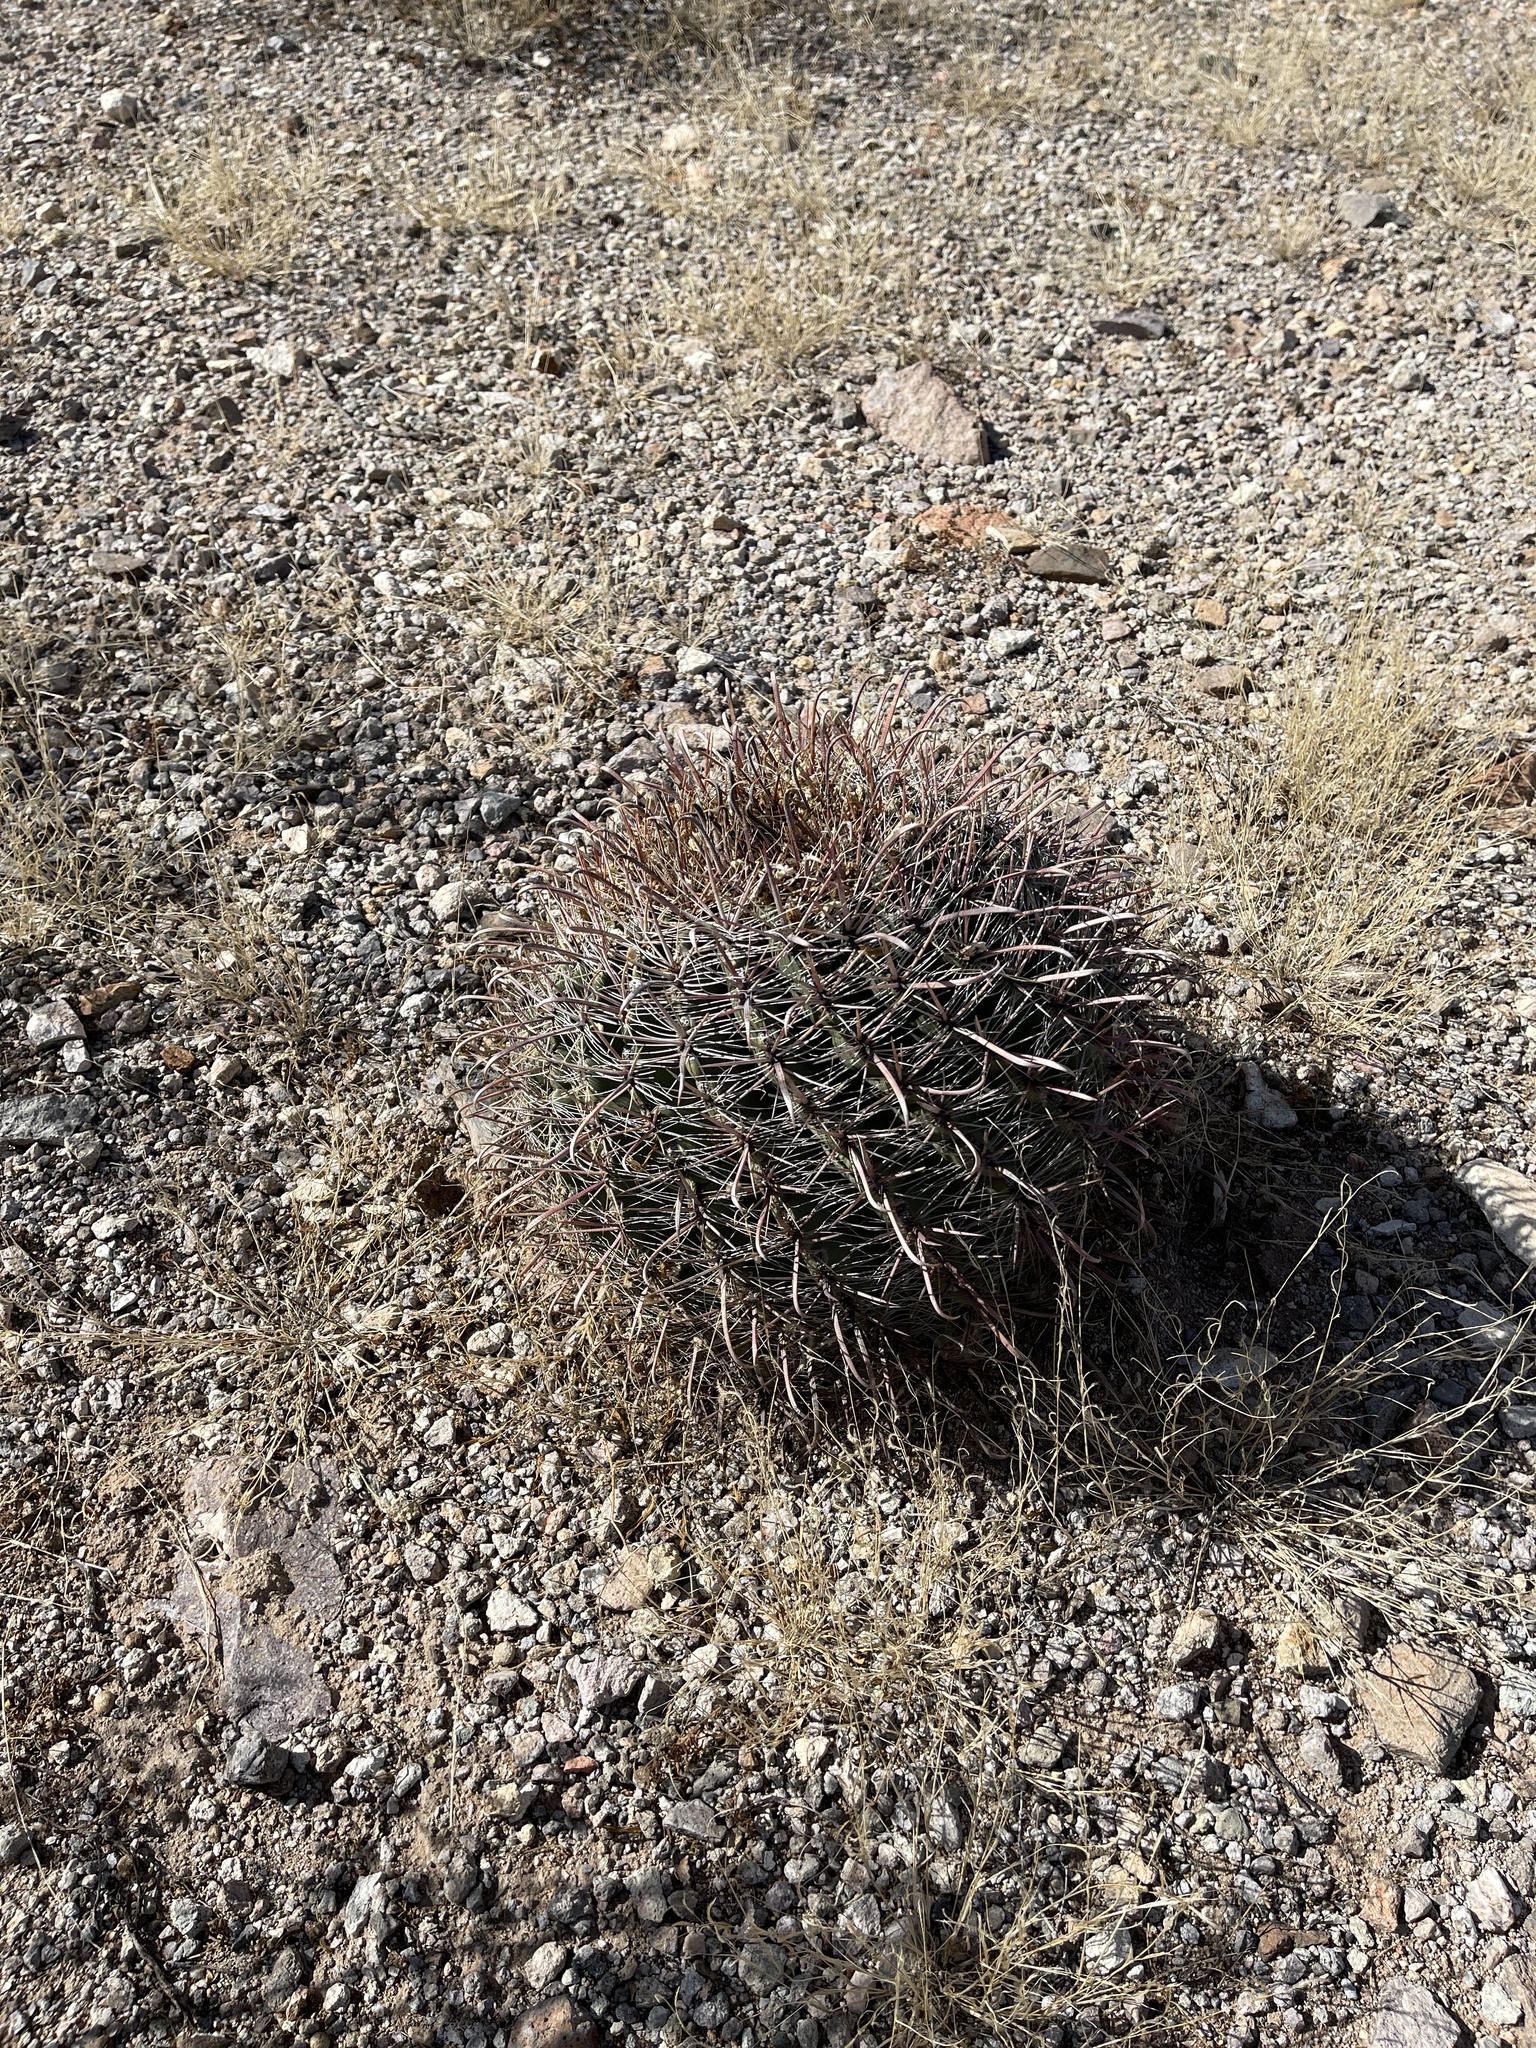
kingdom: Plantae
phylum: Tracheophyta
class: Magnoliopsida
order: Caryophyllales
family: Cactaceae
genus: Ferocactus
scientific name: Ferocactus wislizeni
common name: Candy barrel cactus
